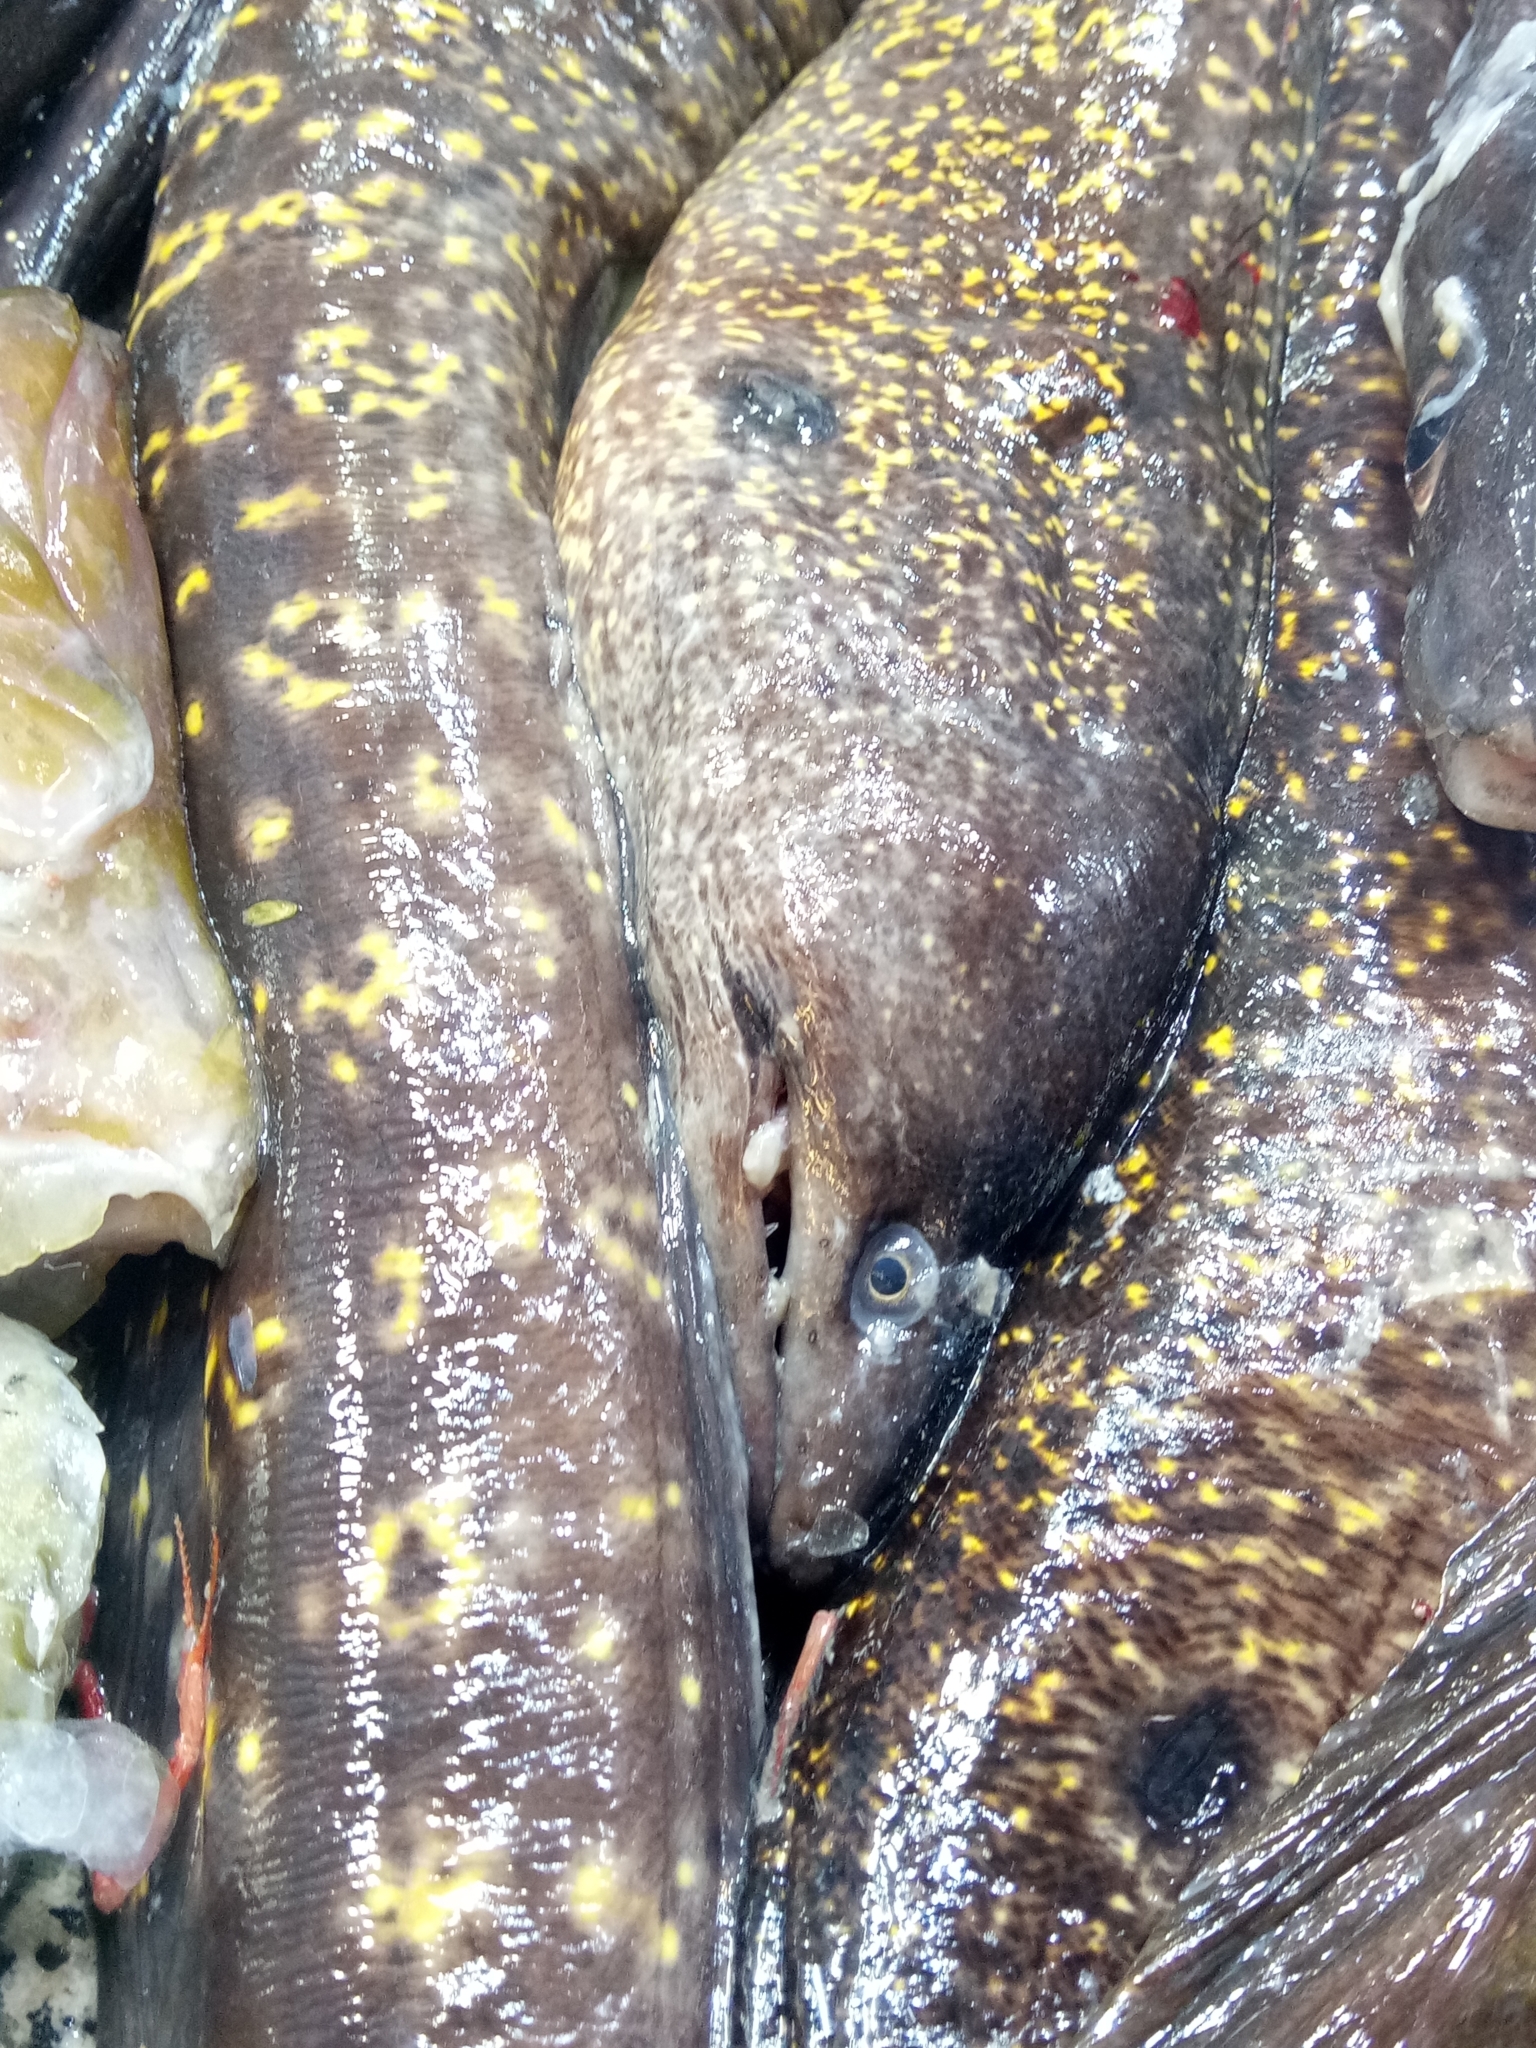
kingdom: Animalia
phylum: Chordata
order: Anguilliformes
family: Muraenidae
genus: Muraena
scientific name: Muraena helena
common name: Mediterranean moray
